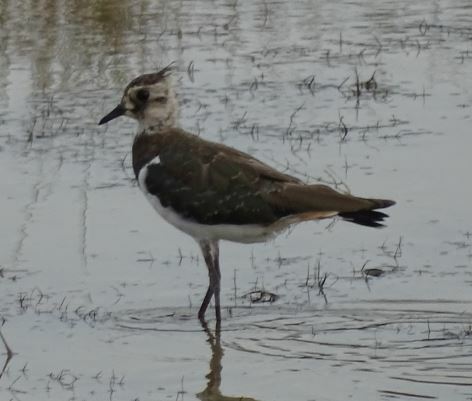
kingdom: Animalia
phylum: Chordata
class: Aves
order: Charadriiformes
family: Charadriidae
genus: Vanellus
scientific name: Vanellus vanellus
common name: Northern lapwing
